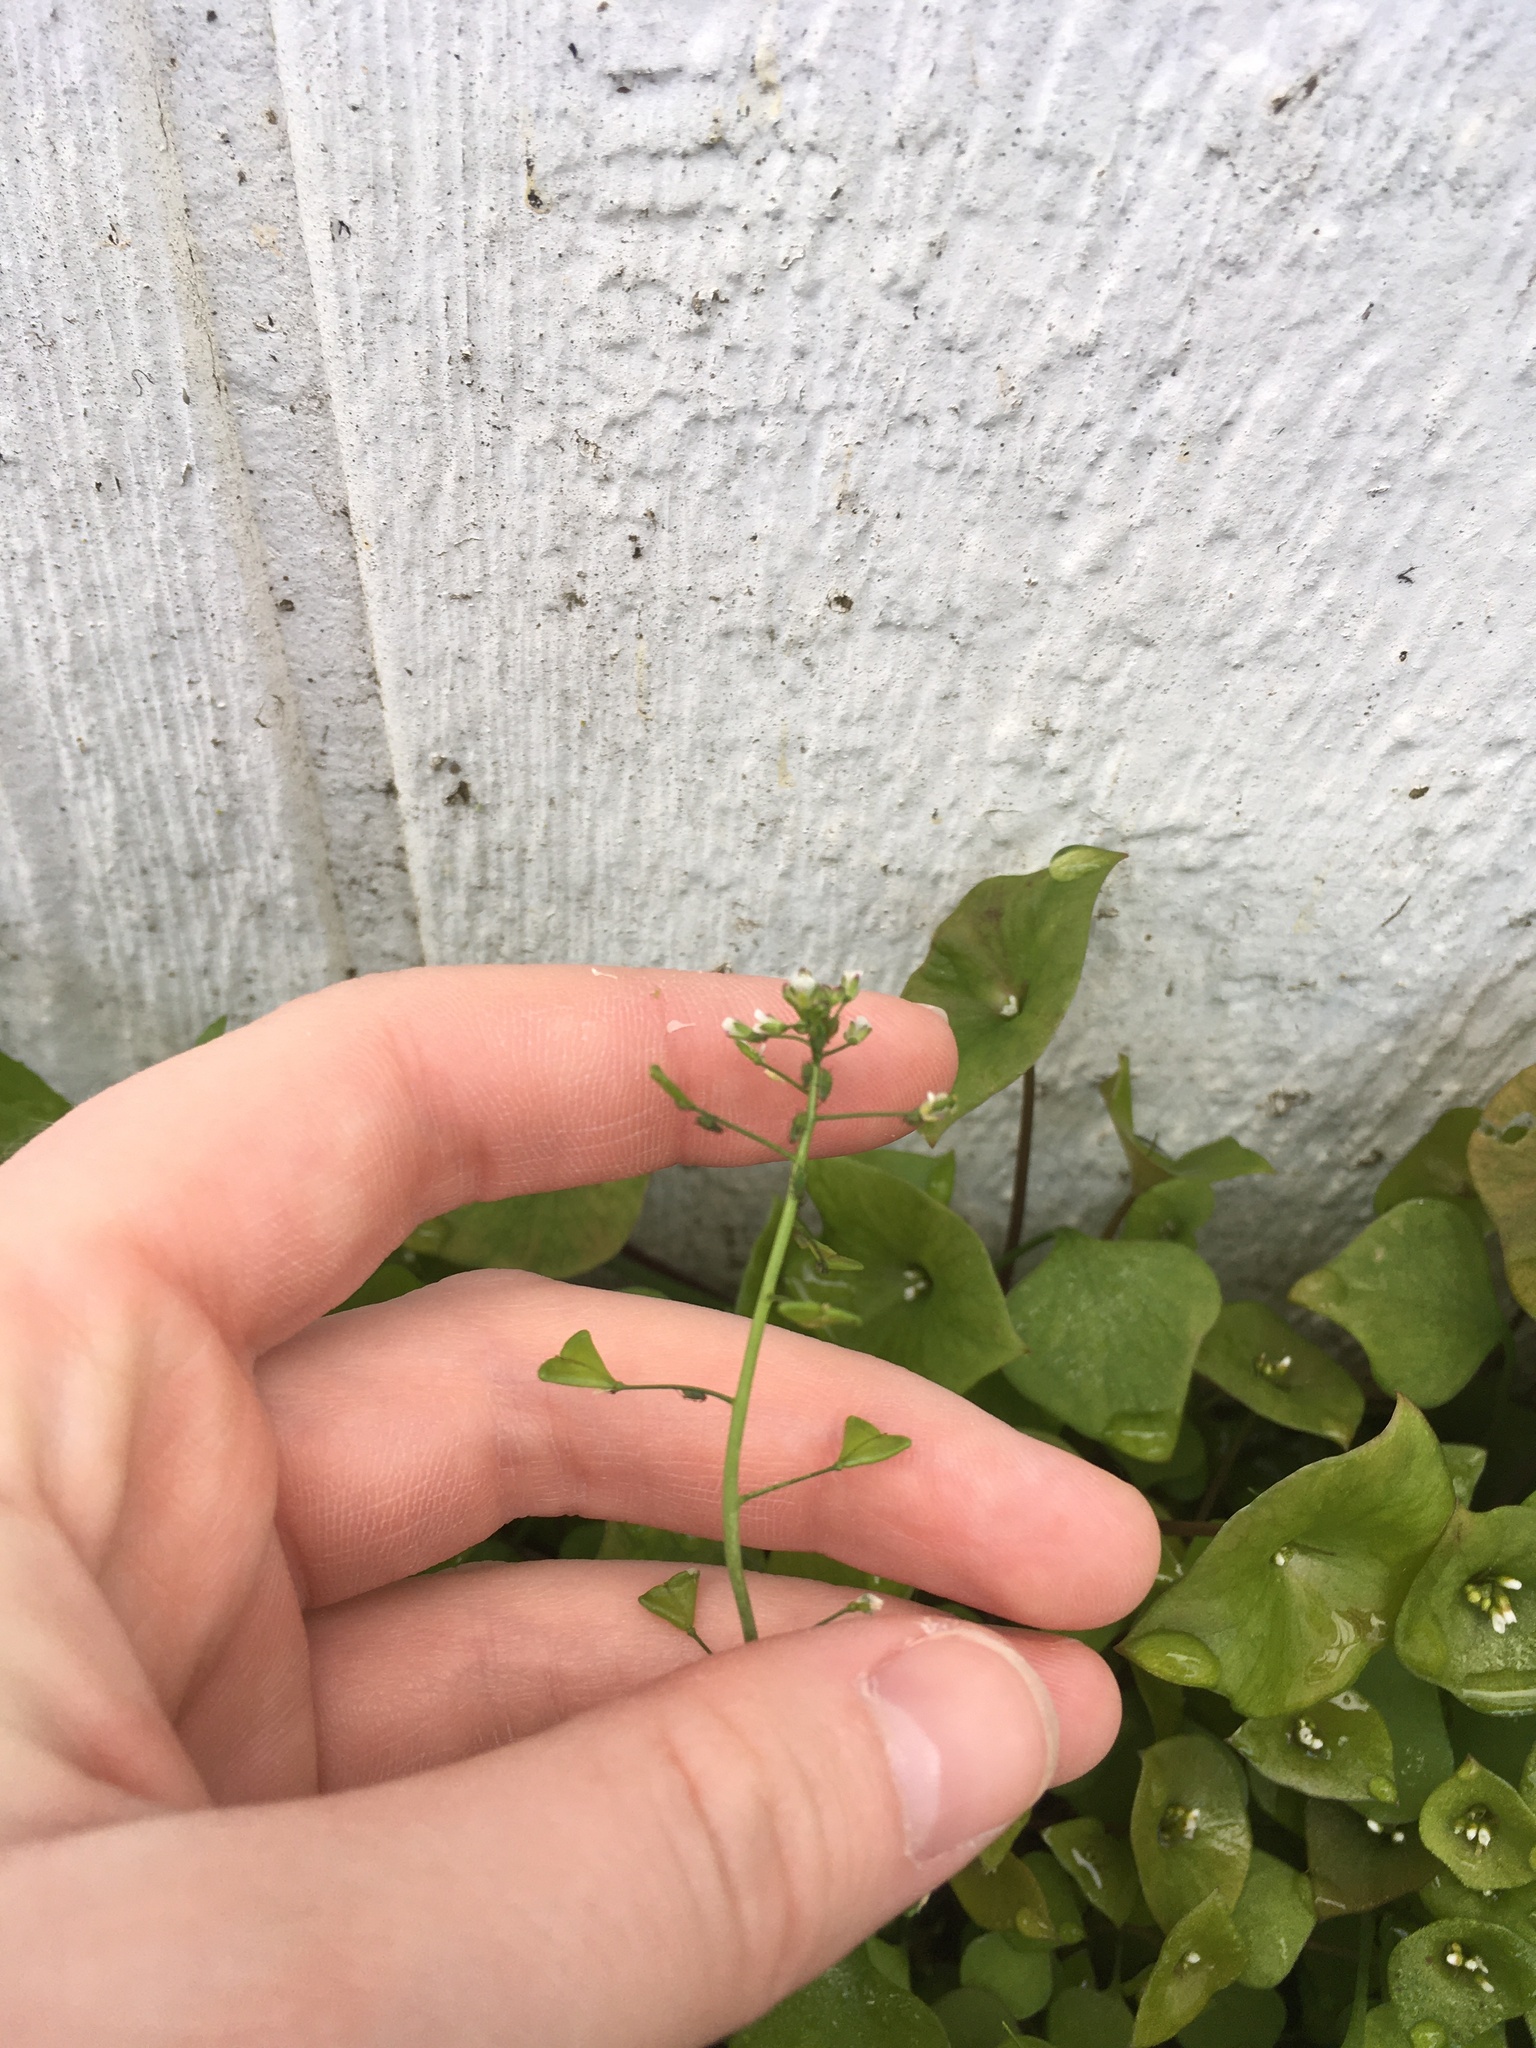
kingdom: Plantae
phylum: Tracheophyta
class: Magnoliopsida
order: Brassicales
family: Brassicaceae
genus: Capsella
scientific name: Capsella bursa-pastoris
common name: Shepherd's purse
